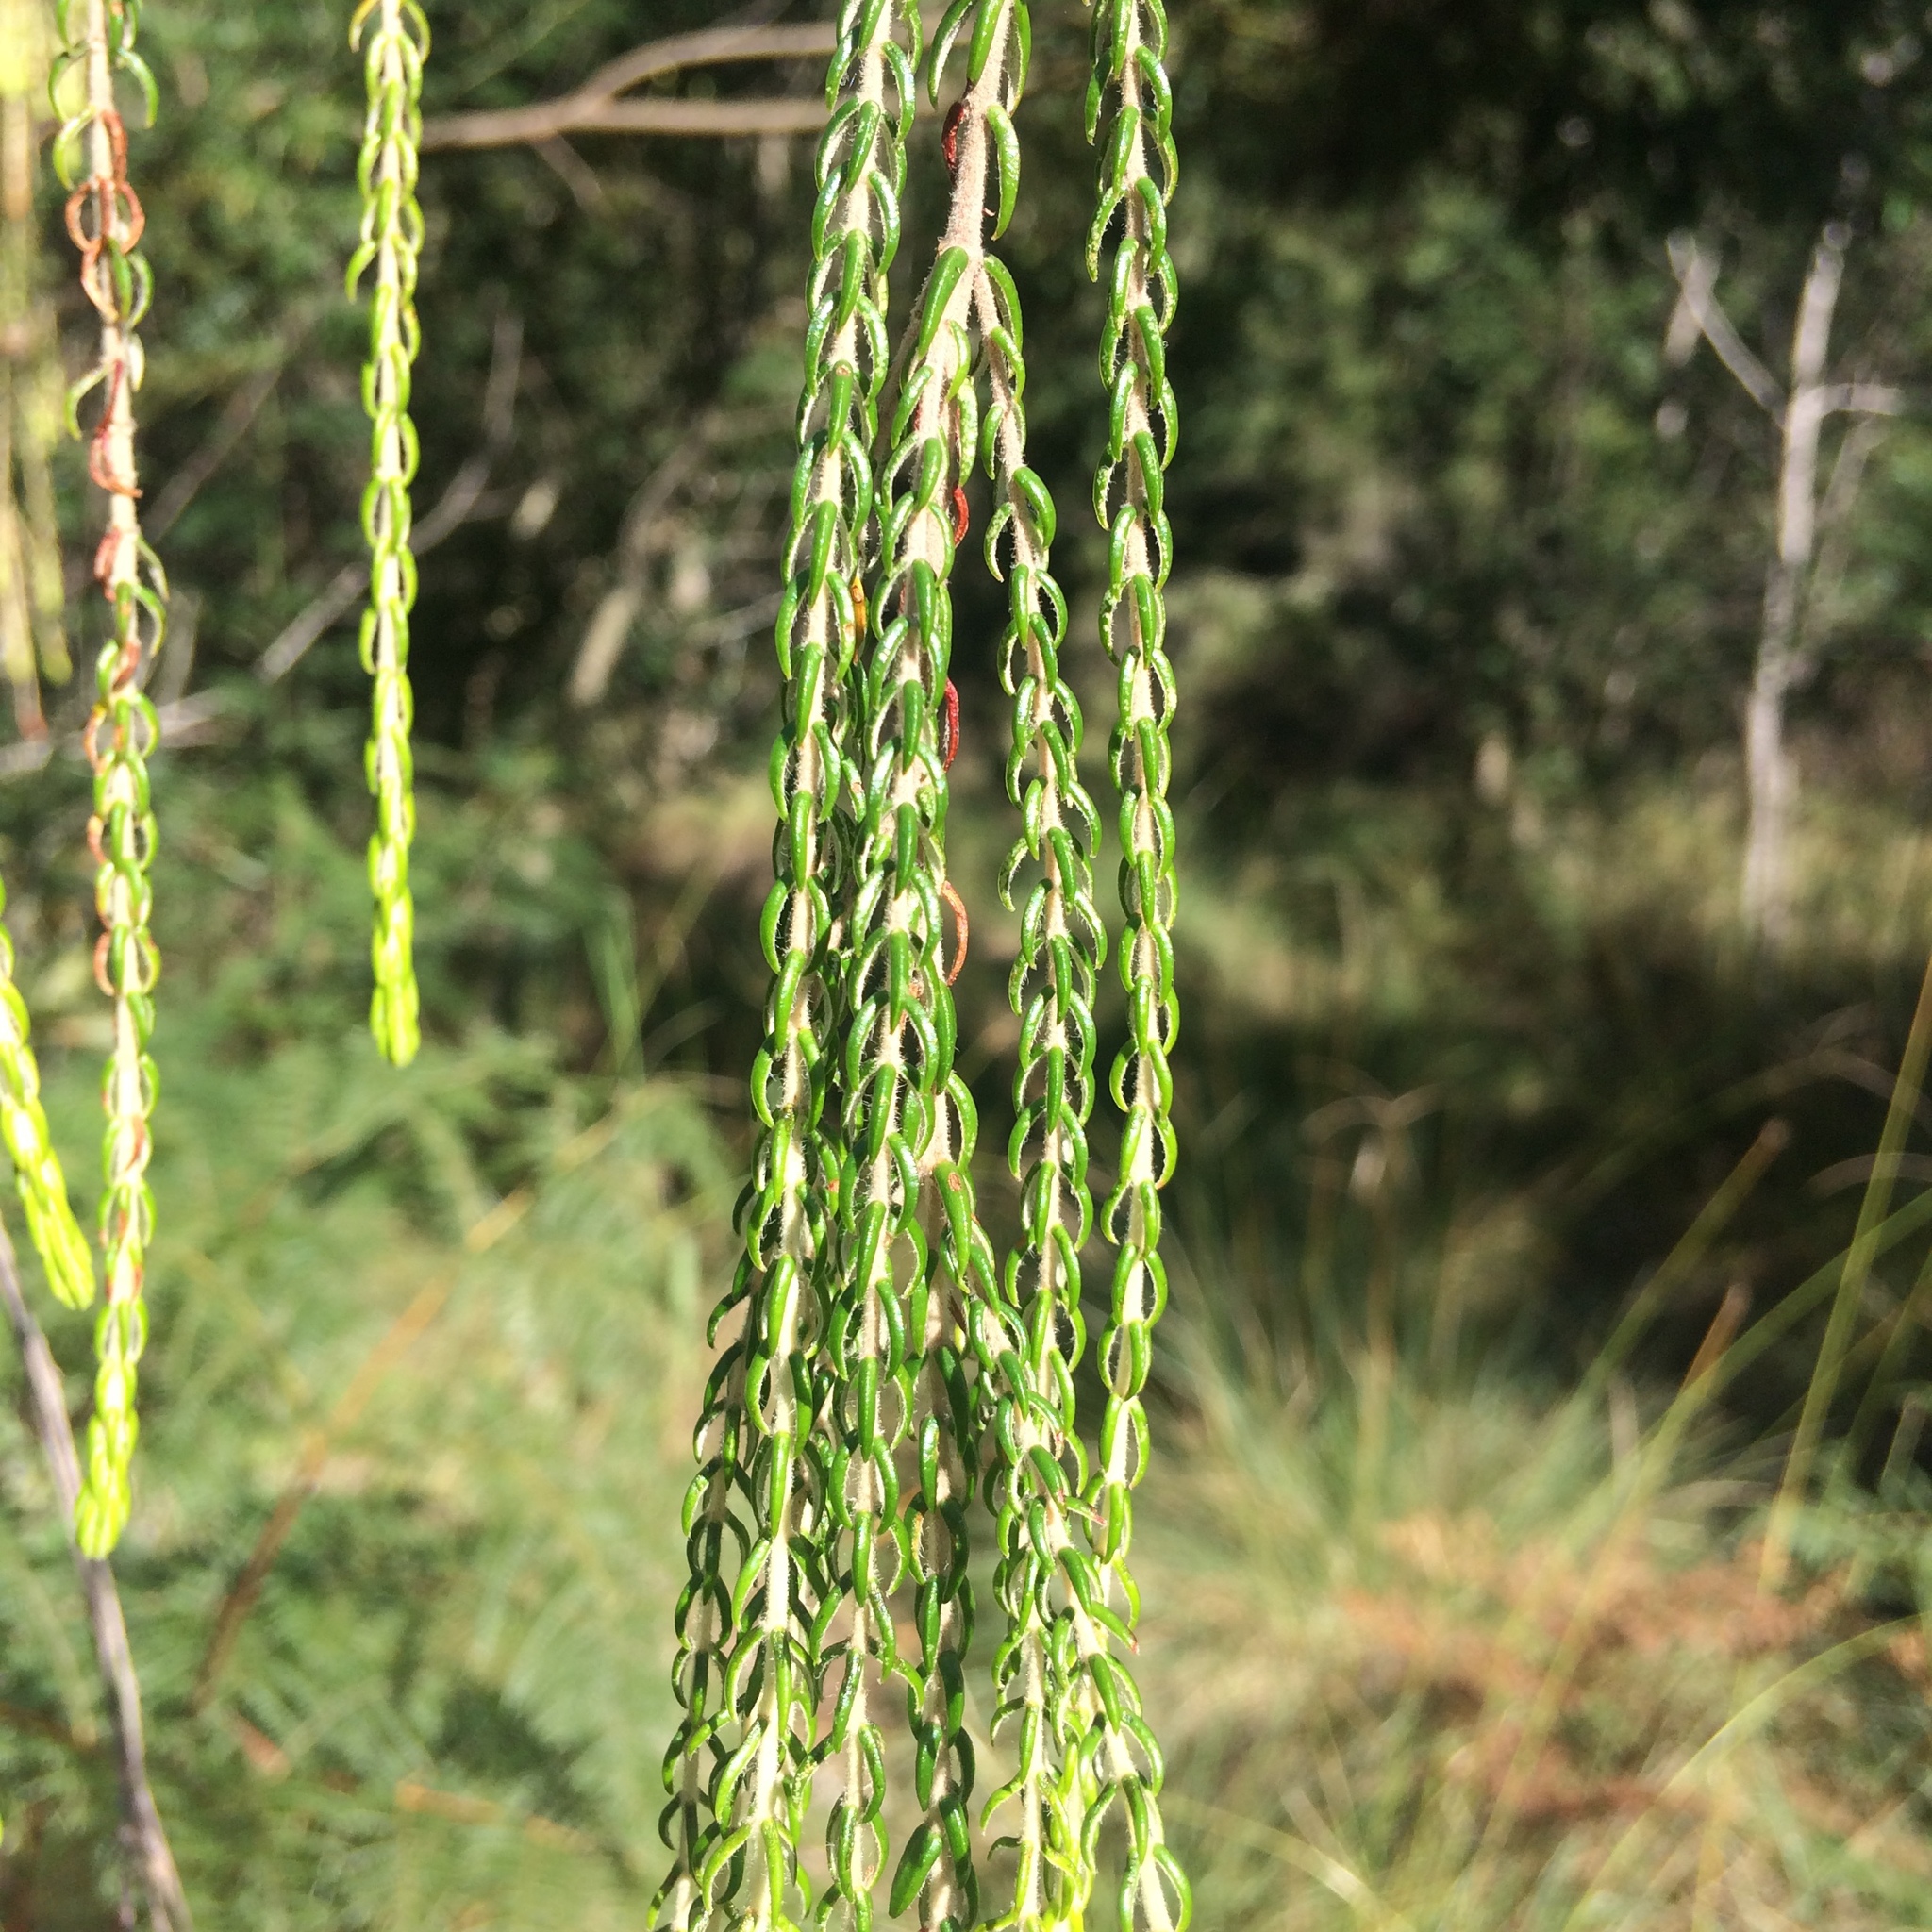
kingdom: Plantae
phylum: Tracheophyta
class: Magnoliopsida
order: Malvales
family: Thymelaeaceae
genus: Passerina
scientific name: Passerina falcifolia
